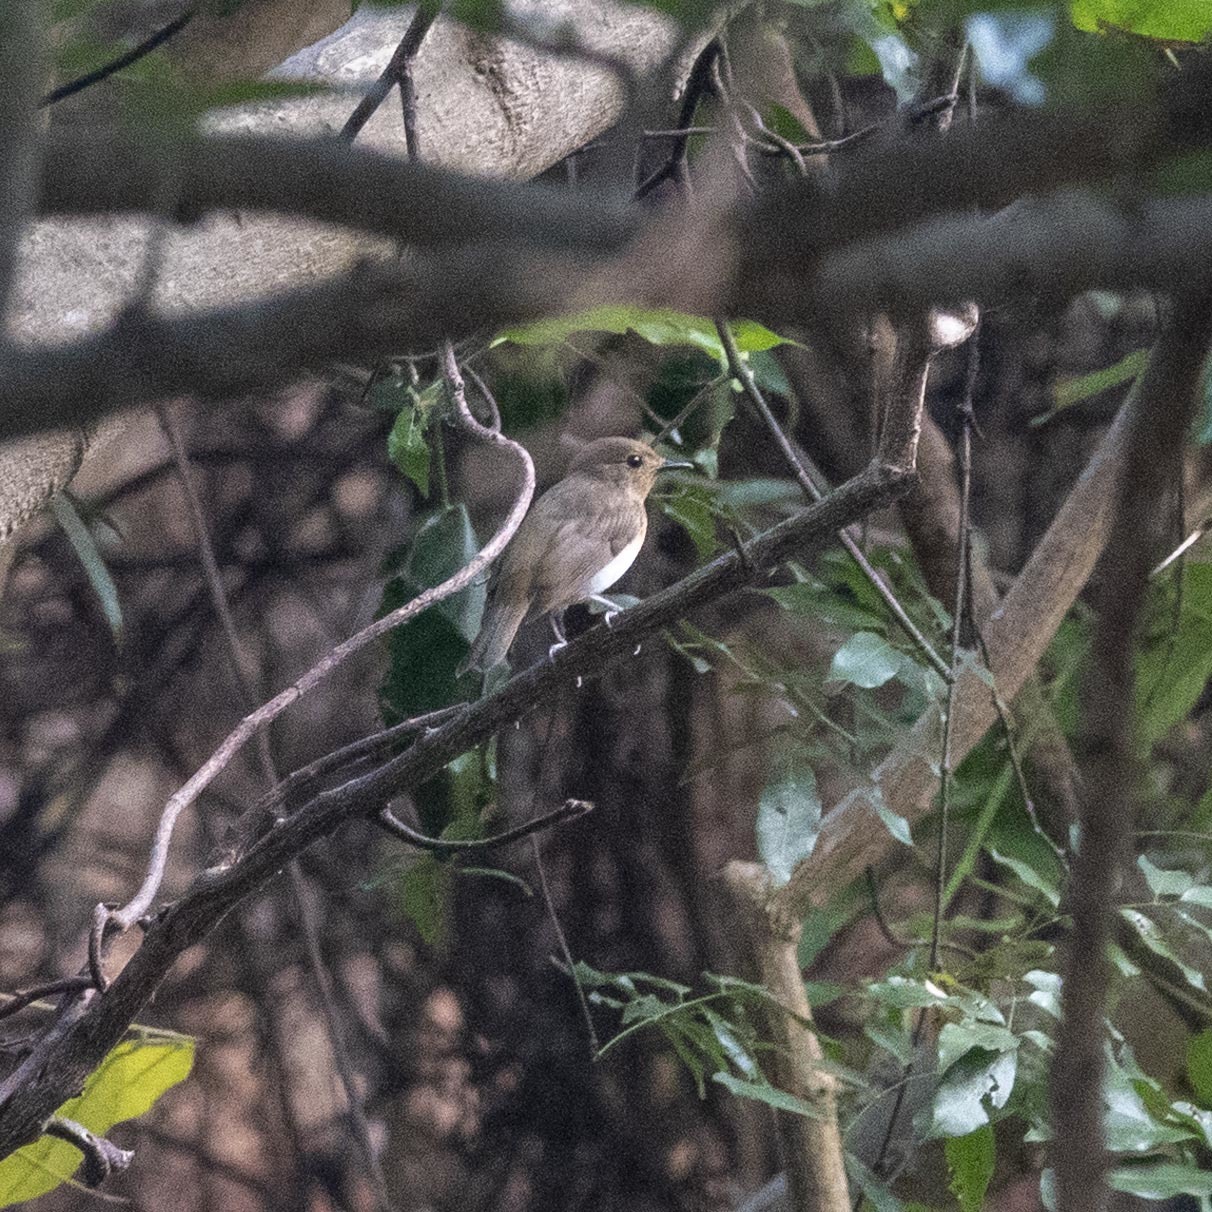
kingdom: Animalia
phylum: Chordata
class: Aves
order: Passeriformes
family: Muscicapidae
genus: Cyornis
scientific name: Cyornis rubeculoides
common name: Blue-throated blue flycatcher
